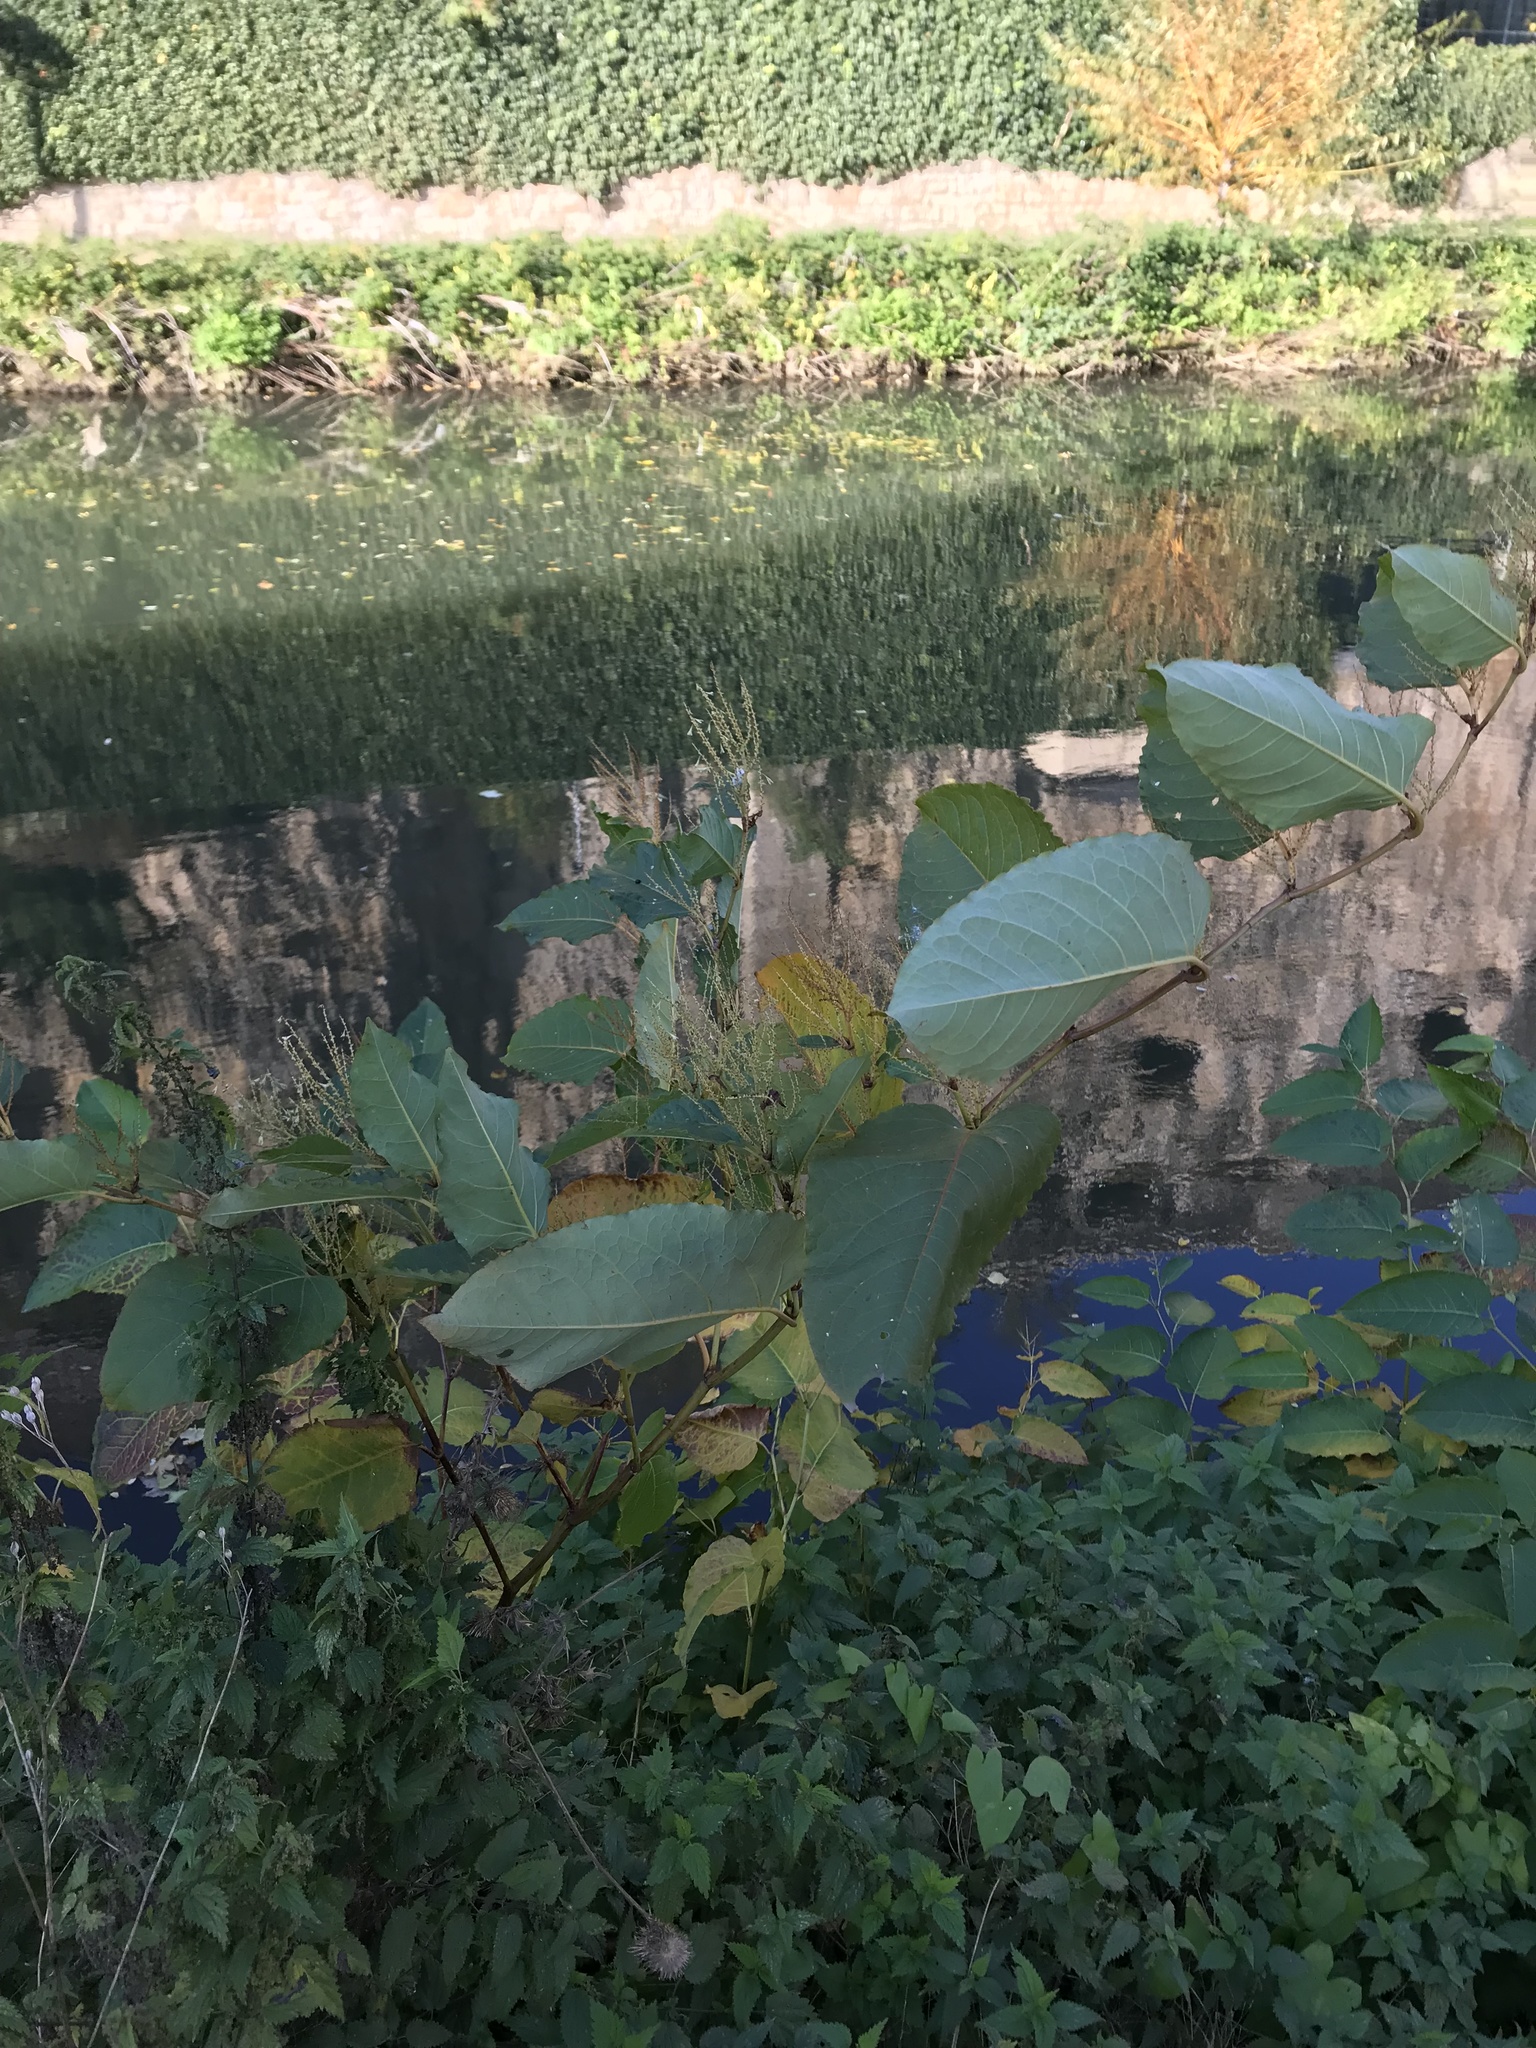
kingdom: Plantae
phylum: Tracheophyta
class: Magnoliopsida
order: Caryophyllales
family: Polygonaceae
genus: Reynoutria
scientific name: Reynoutria sachalinensis
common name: Giant knotweed
